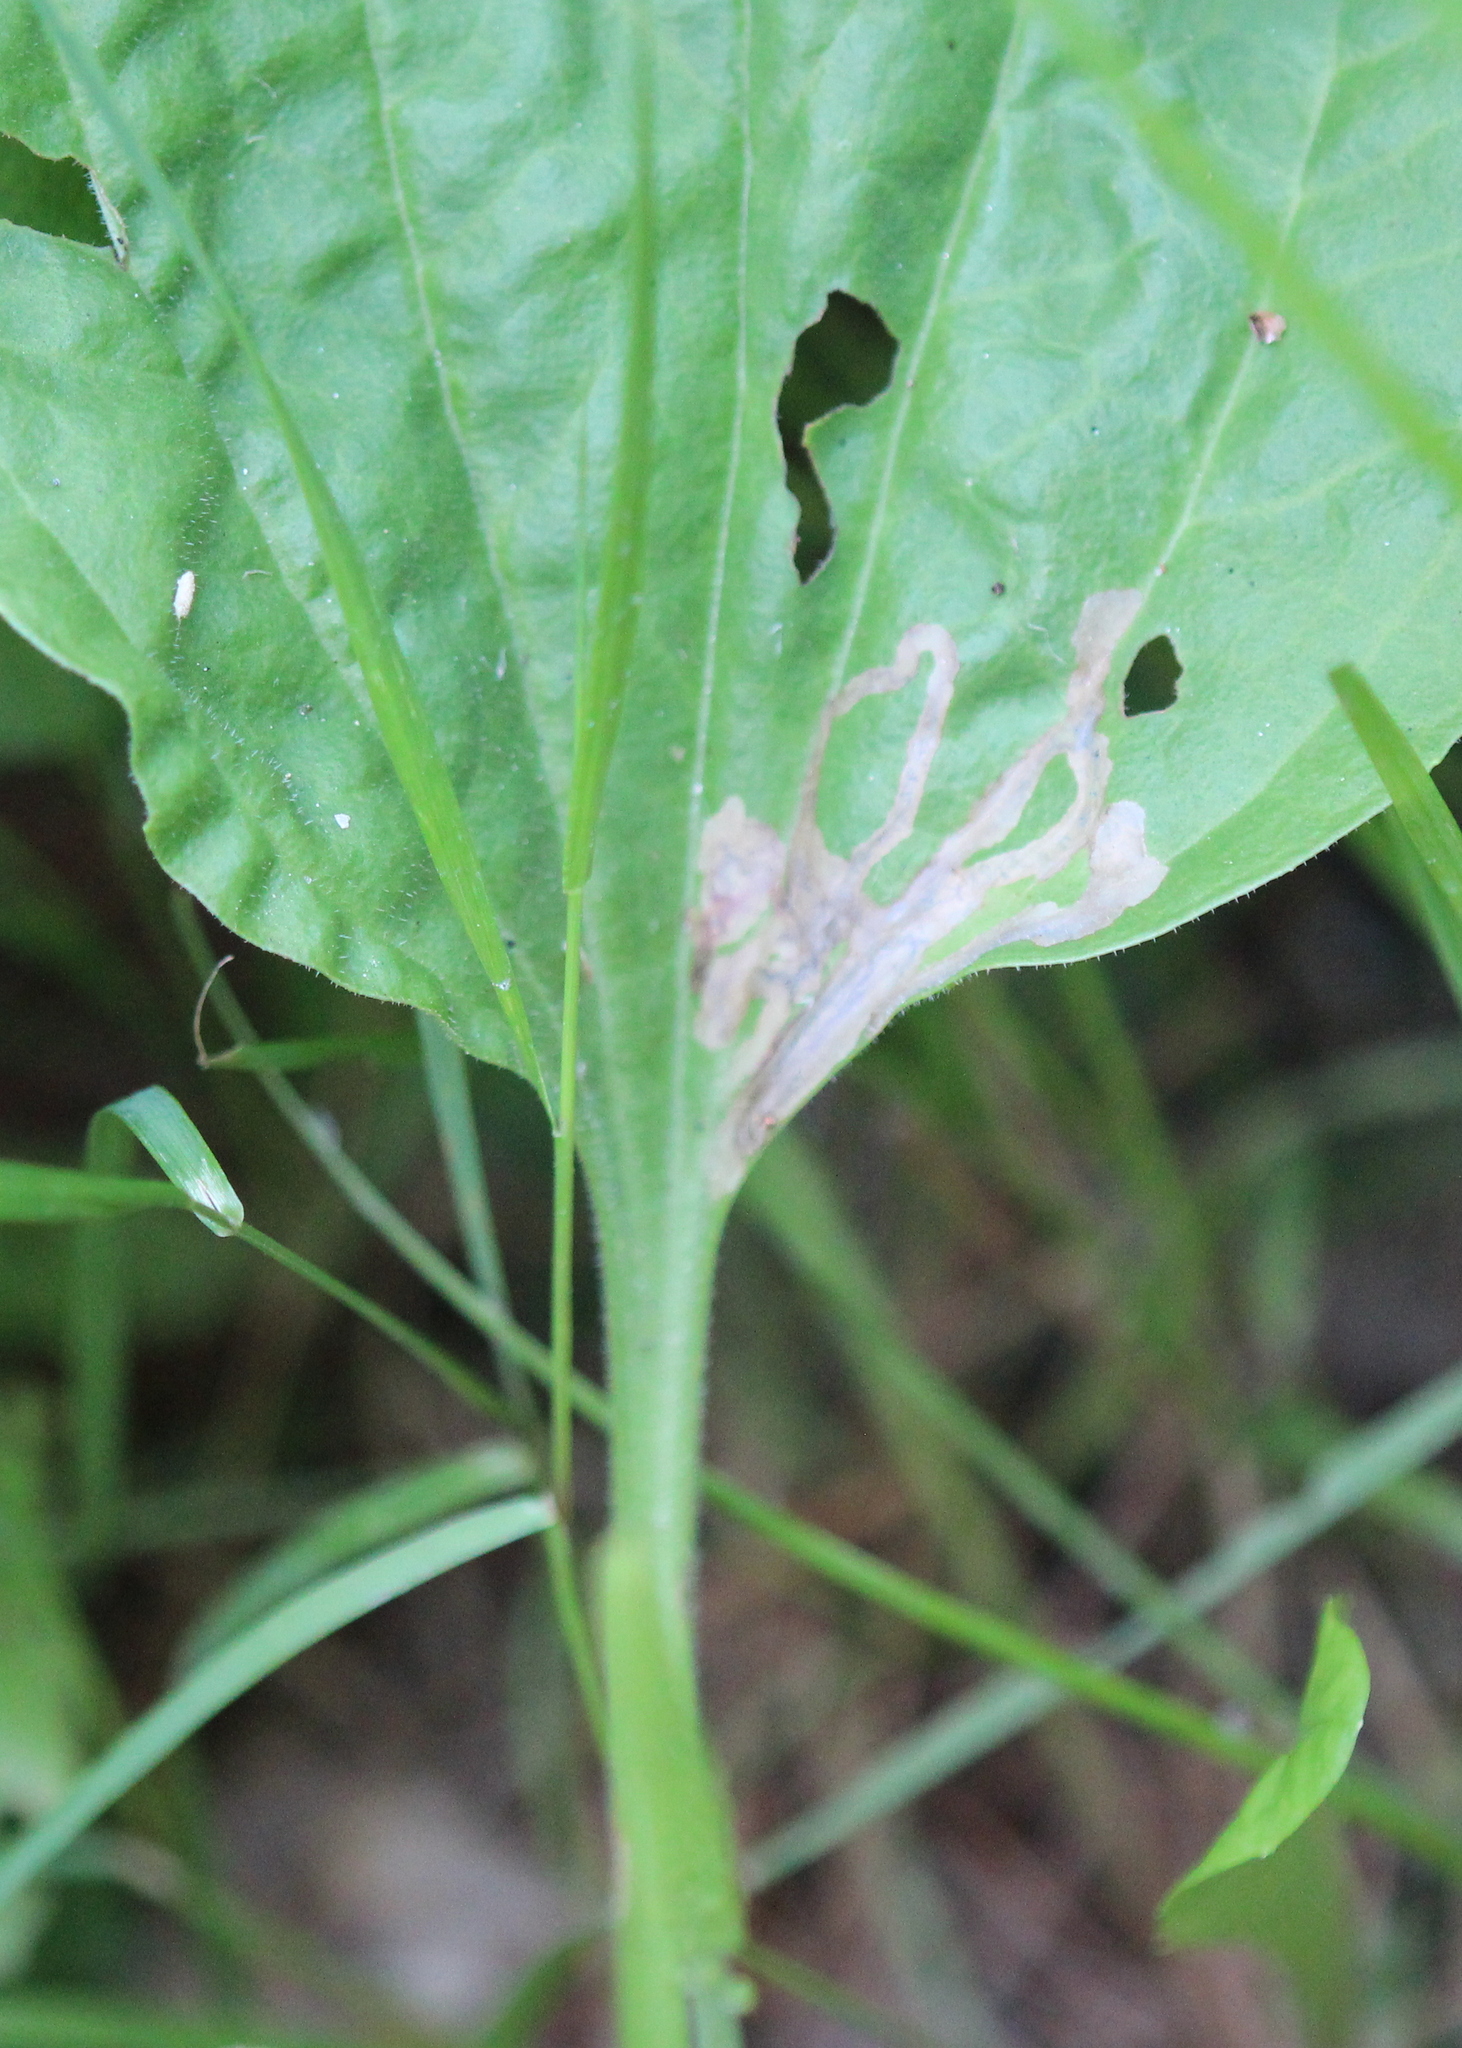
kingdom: Animalia
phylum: Arthropoda
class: Insecta
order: Coleoptera
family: Chrysomelidae
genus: Dibolia
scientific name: Dibolia borealis
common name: Northern plantain flea beetle
